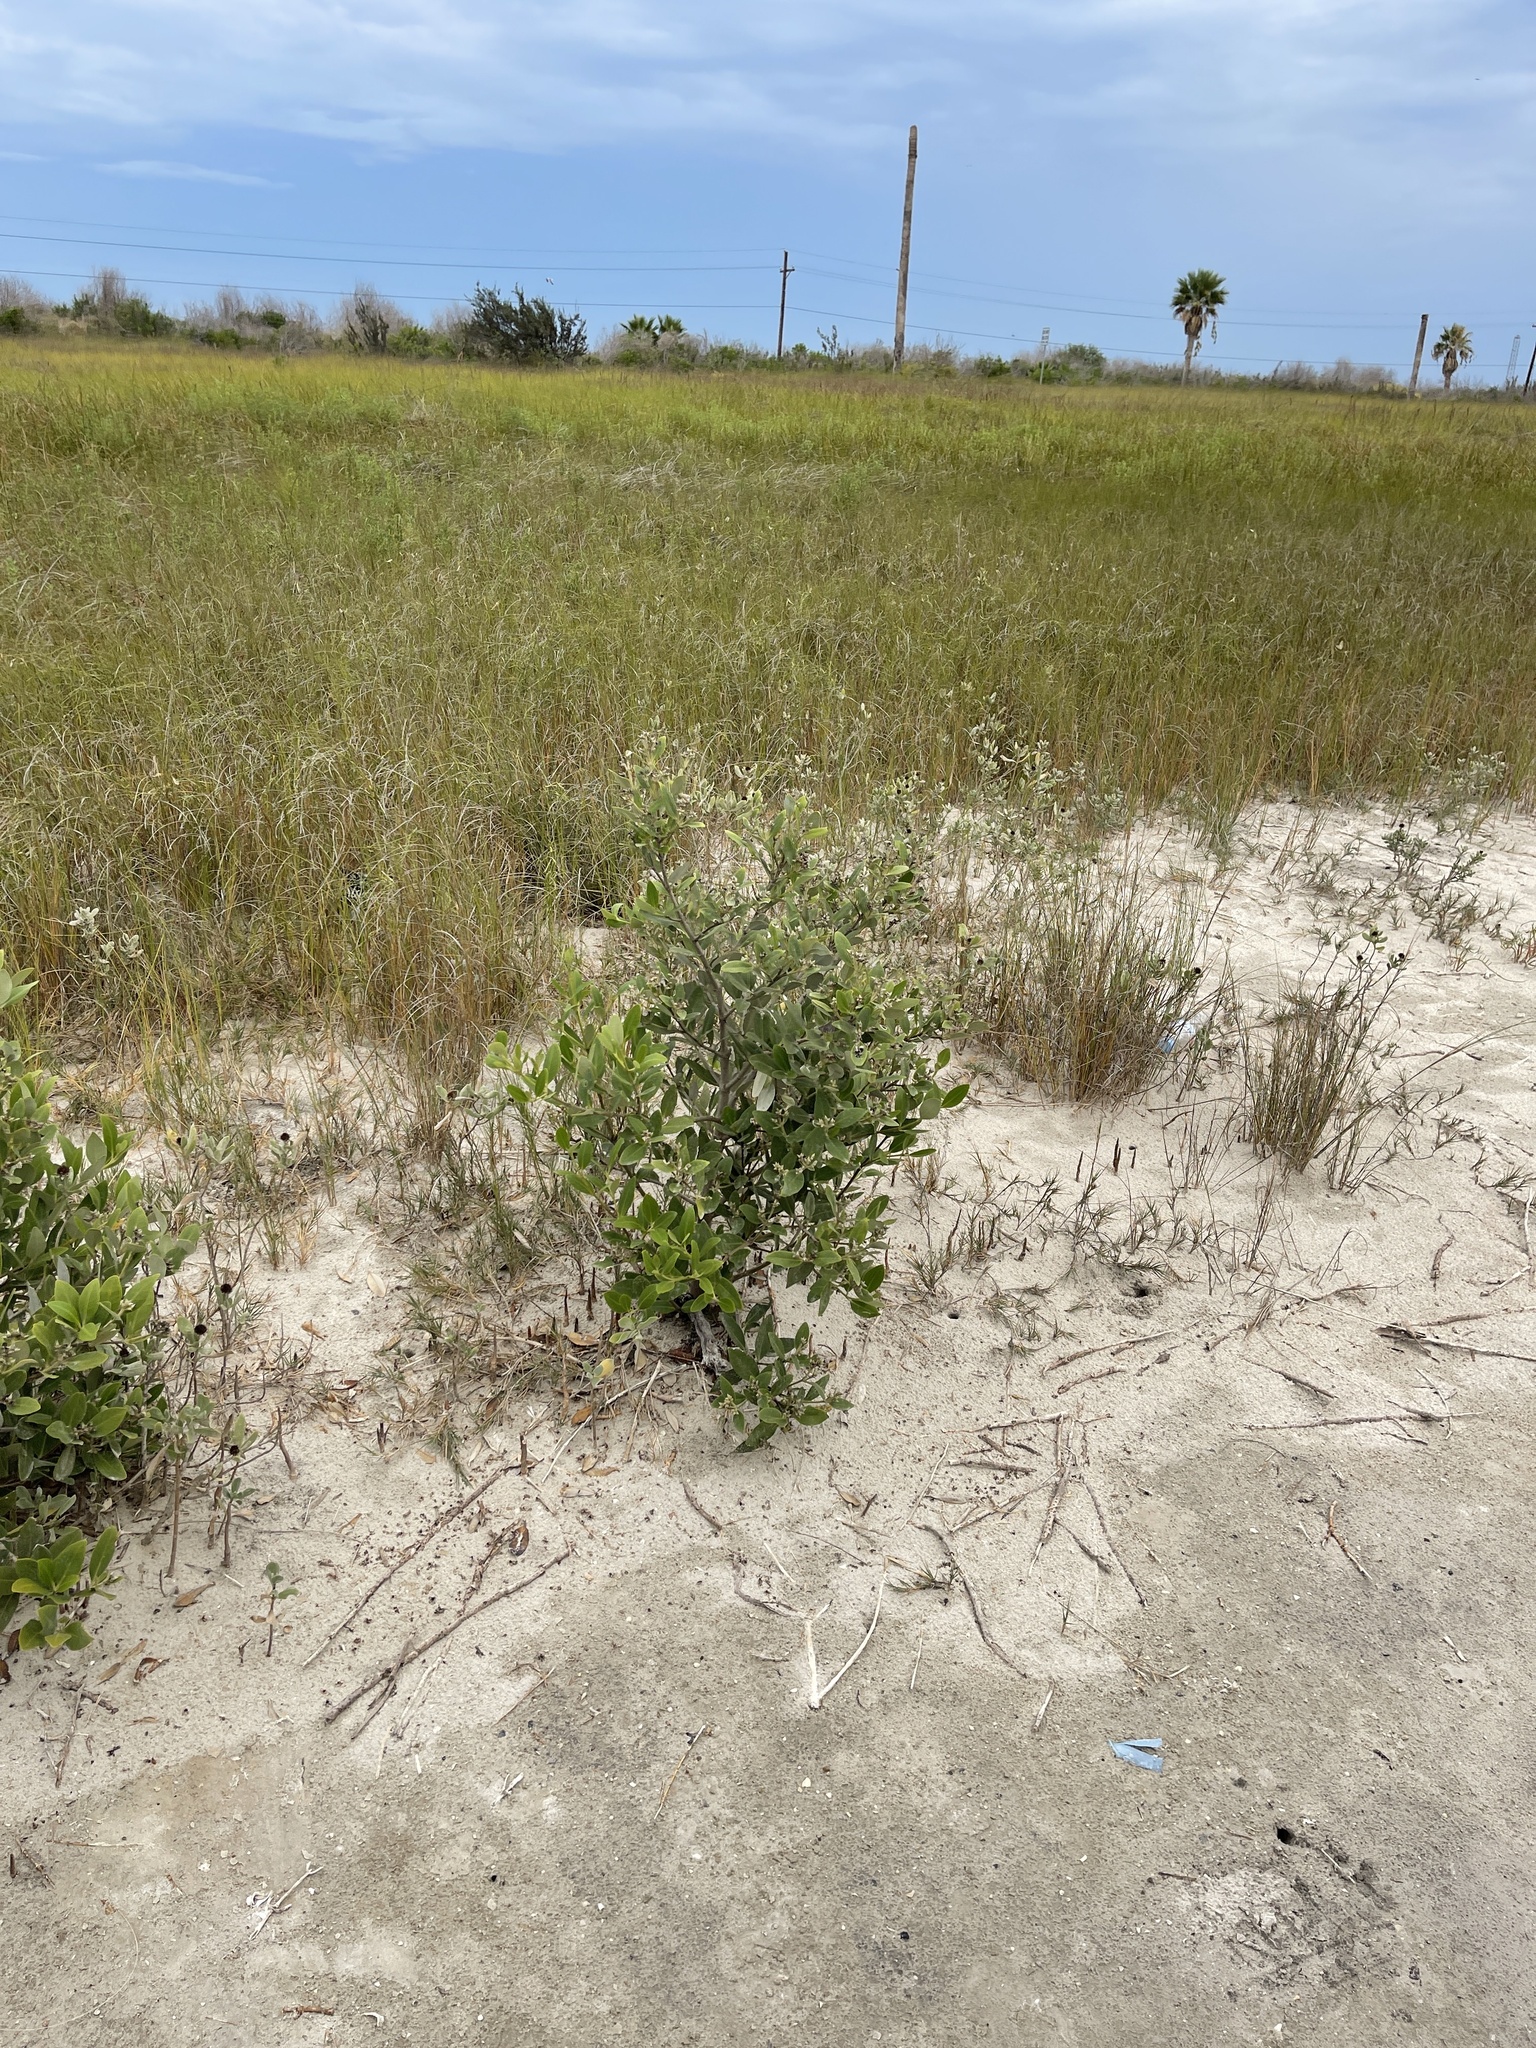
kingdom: Plantae
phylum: Tracheophyta
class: Magnoliopsida
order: Lamiales
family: Acanthaceae
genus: Avicennia
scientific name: Avicennia germinans
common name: Black mangrove
